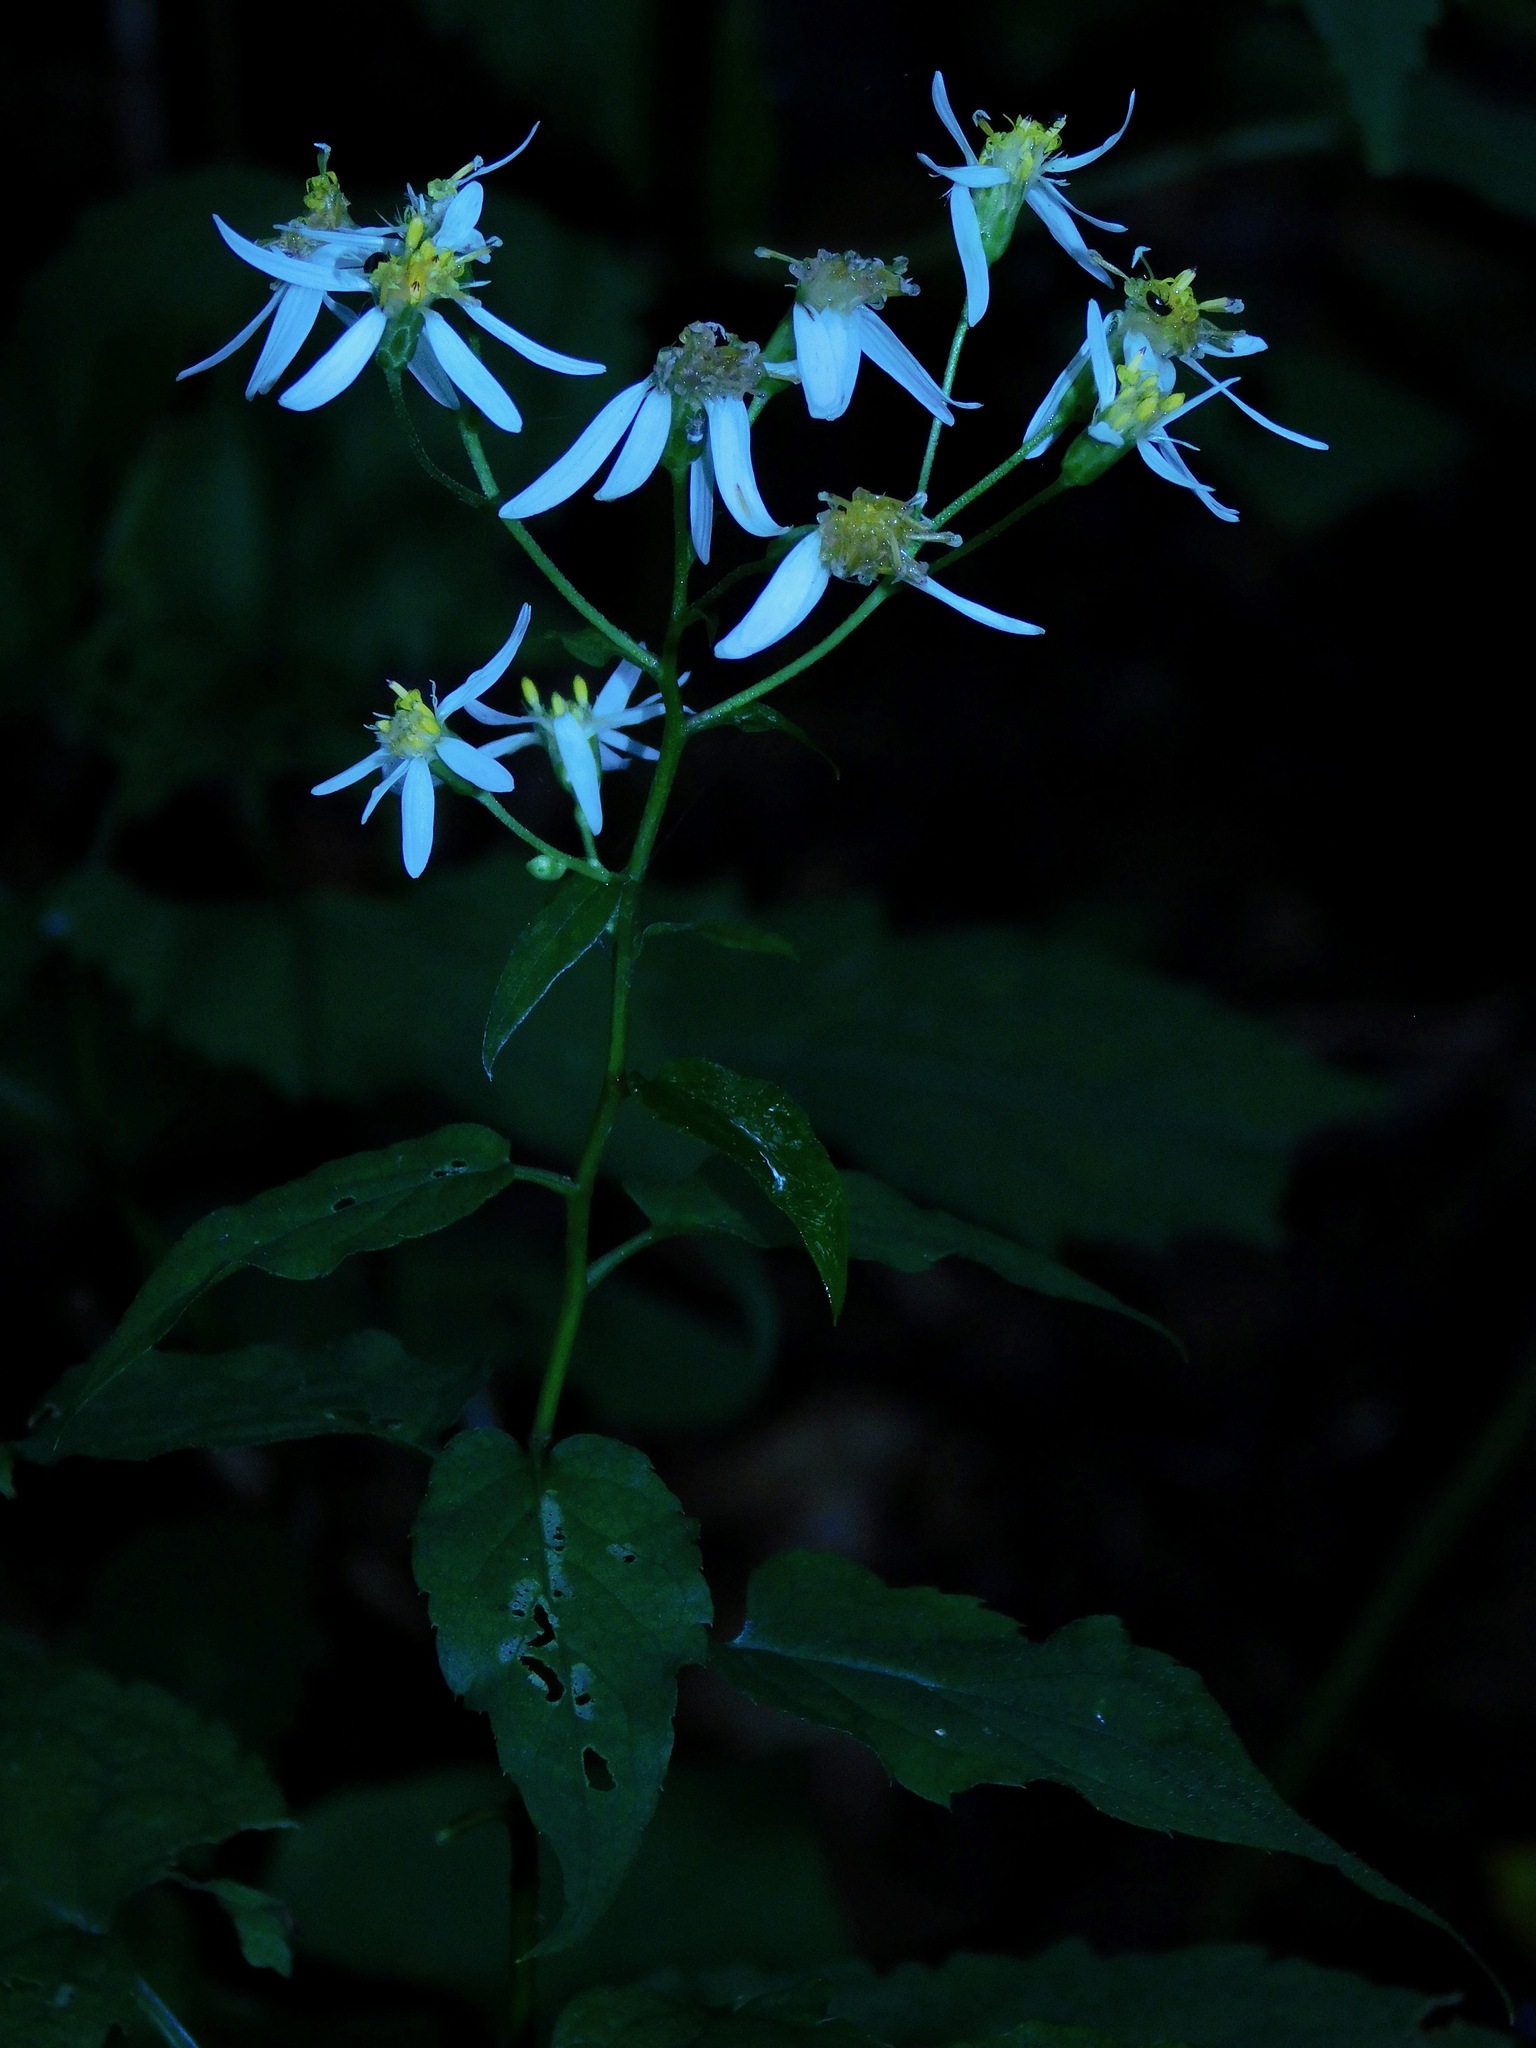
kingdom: Plantae
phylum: Tracheophyta
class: Magnoliopsida
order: Asterales
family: Asteraceae
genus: Eurybia
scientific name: Eurybia chlorolepis
